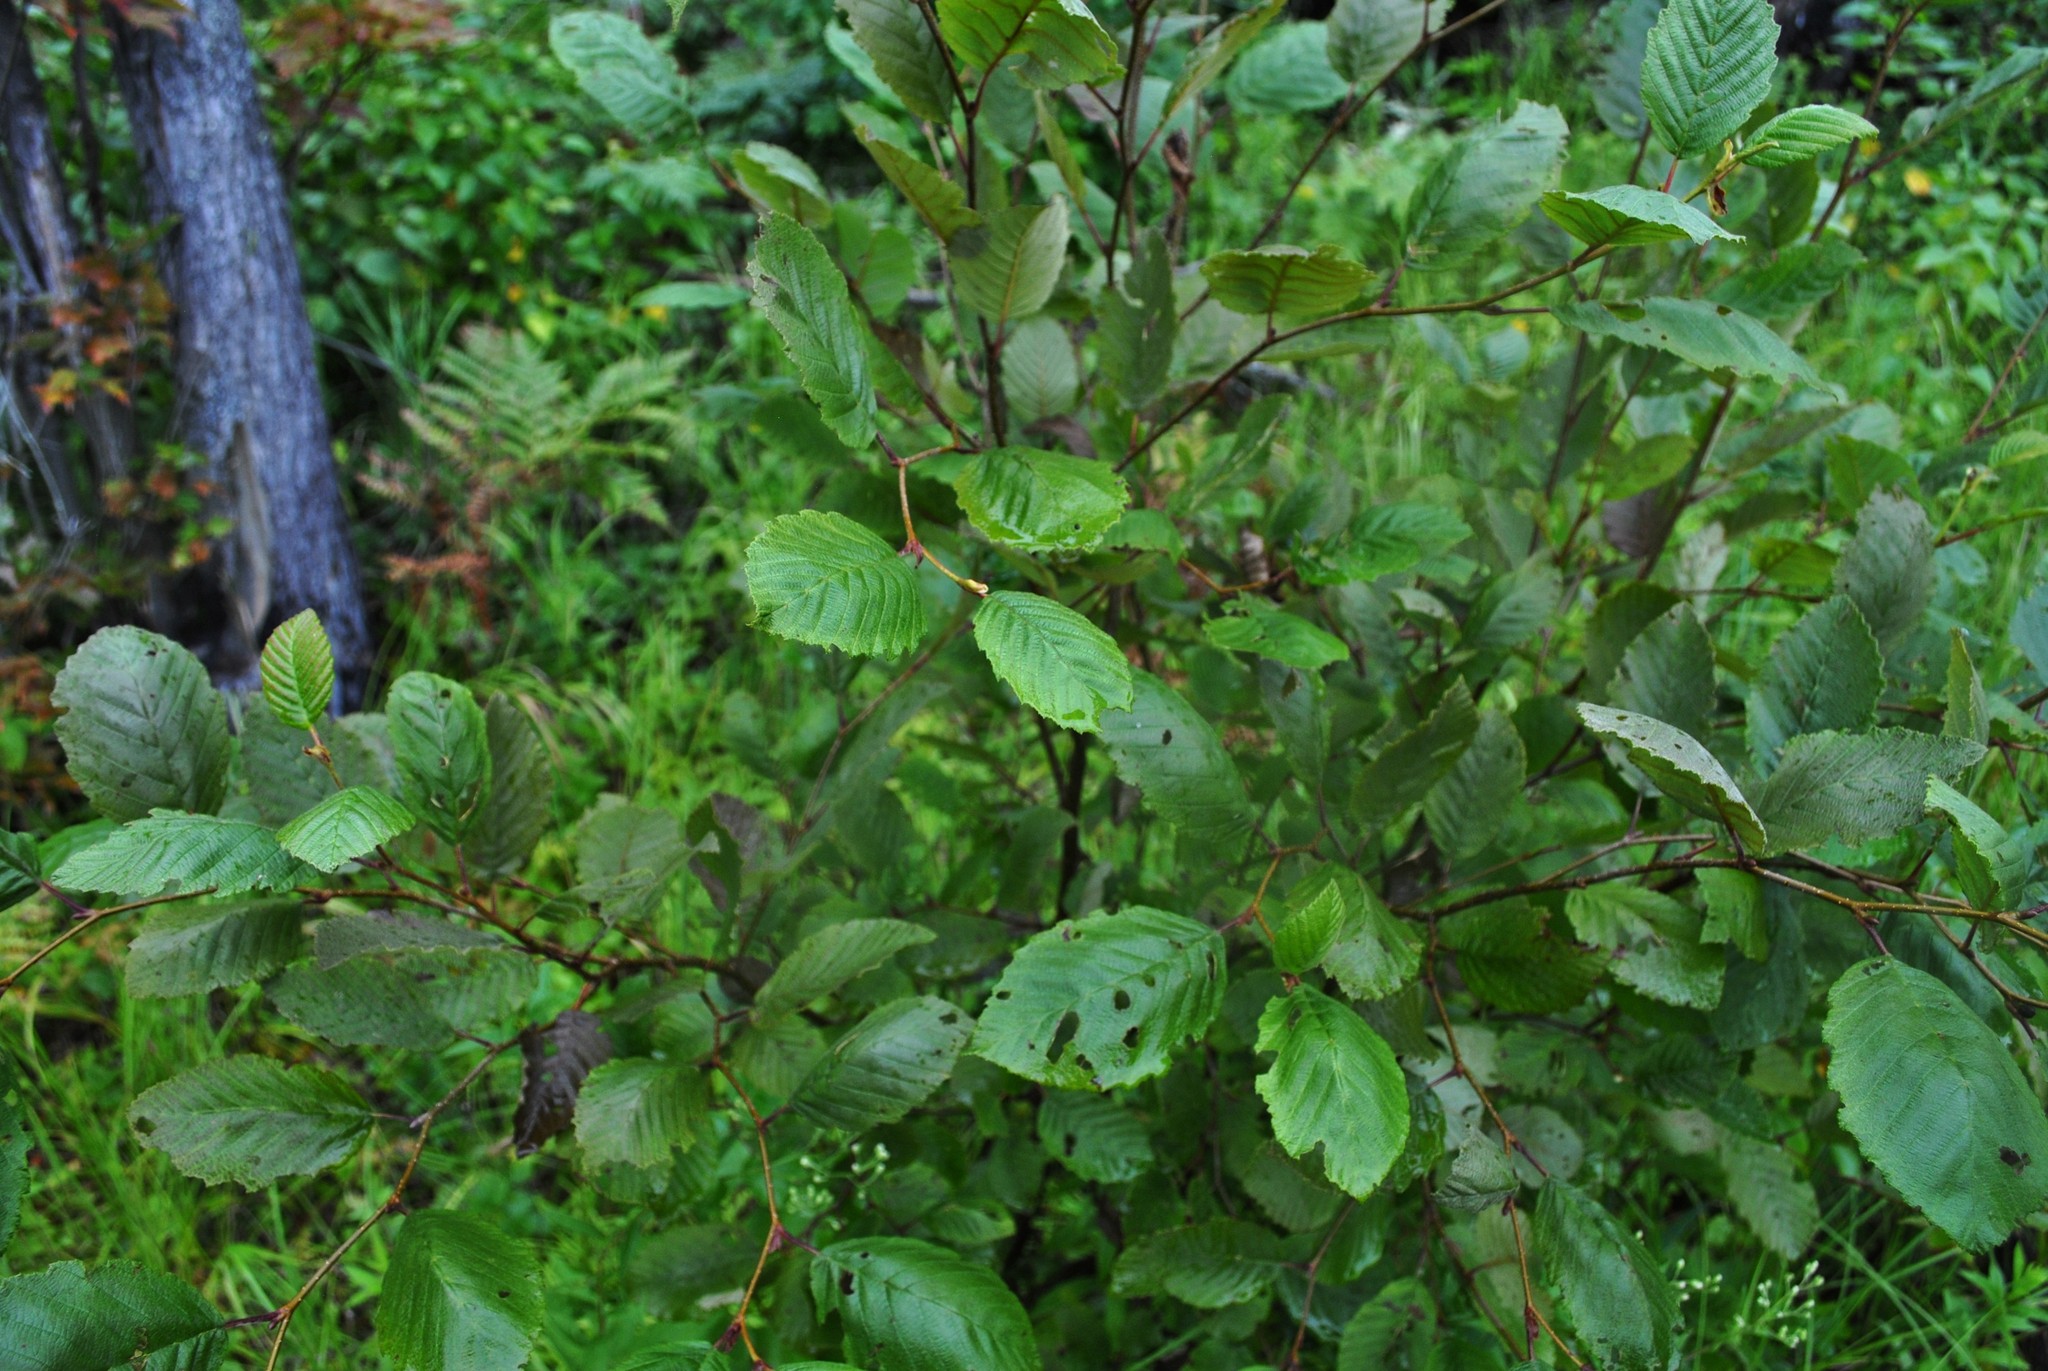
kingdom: Plantae
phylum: Tracheophyta
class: Magnoliopsida
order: Fagales
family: Betulaceae
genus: Alnus
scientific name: Alnus incana
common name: Grey alder
